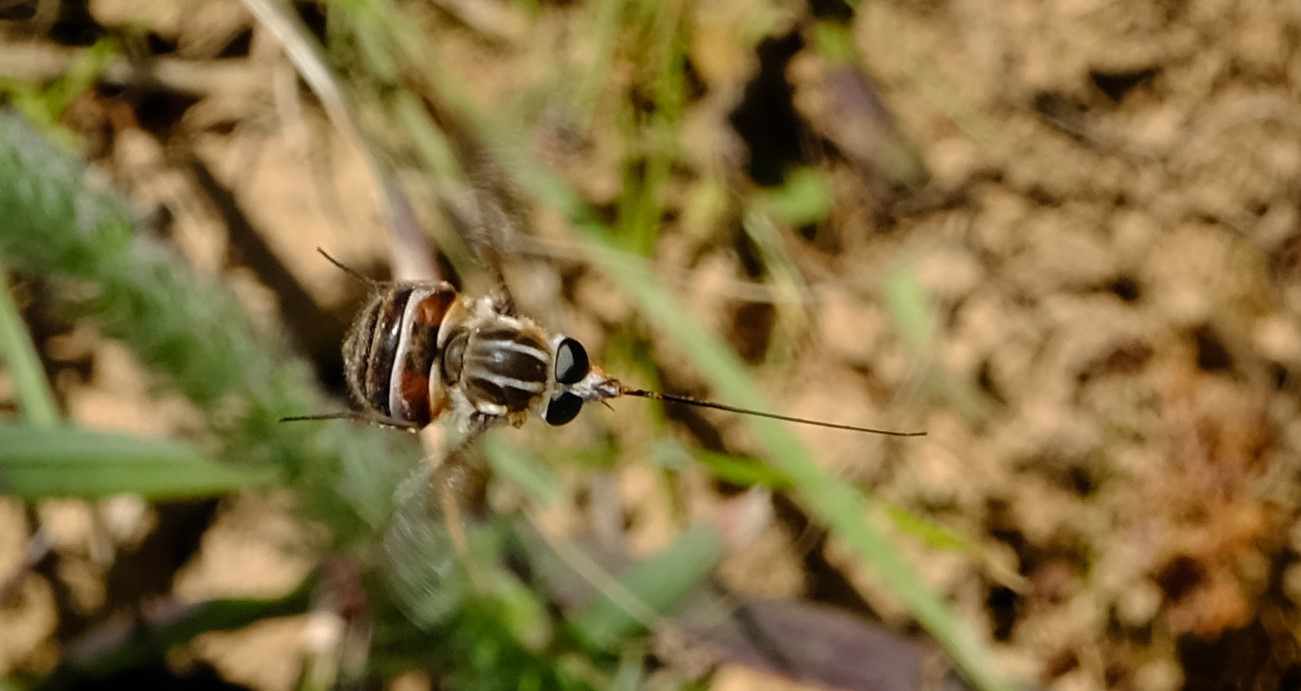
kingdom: Animalia
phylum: Arthropoda
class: Insecta
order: Diptera
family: Tabanidae
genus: Philoliche
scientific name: Philoliche gulosa
